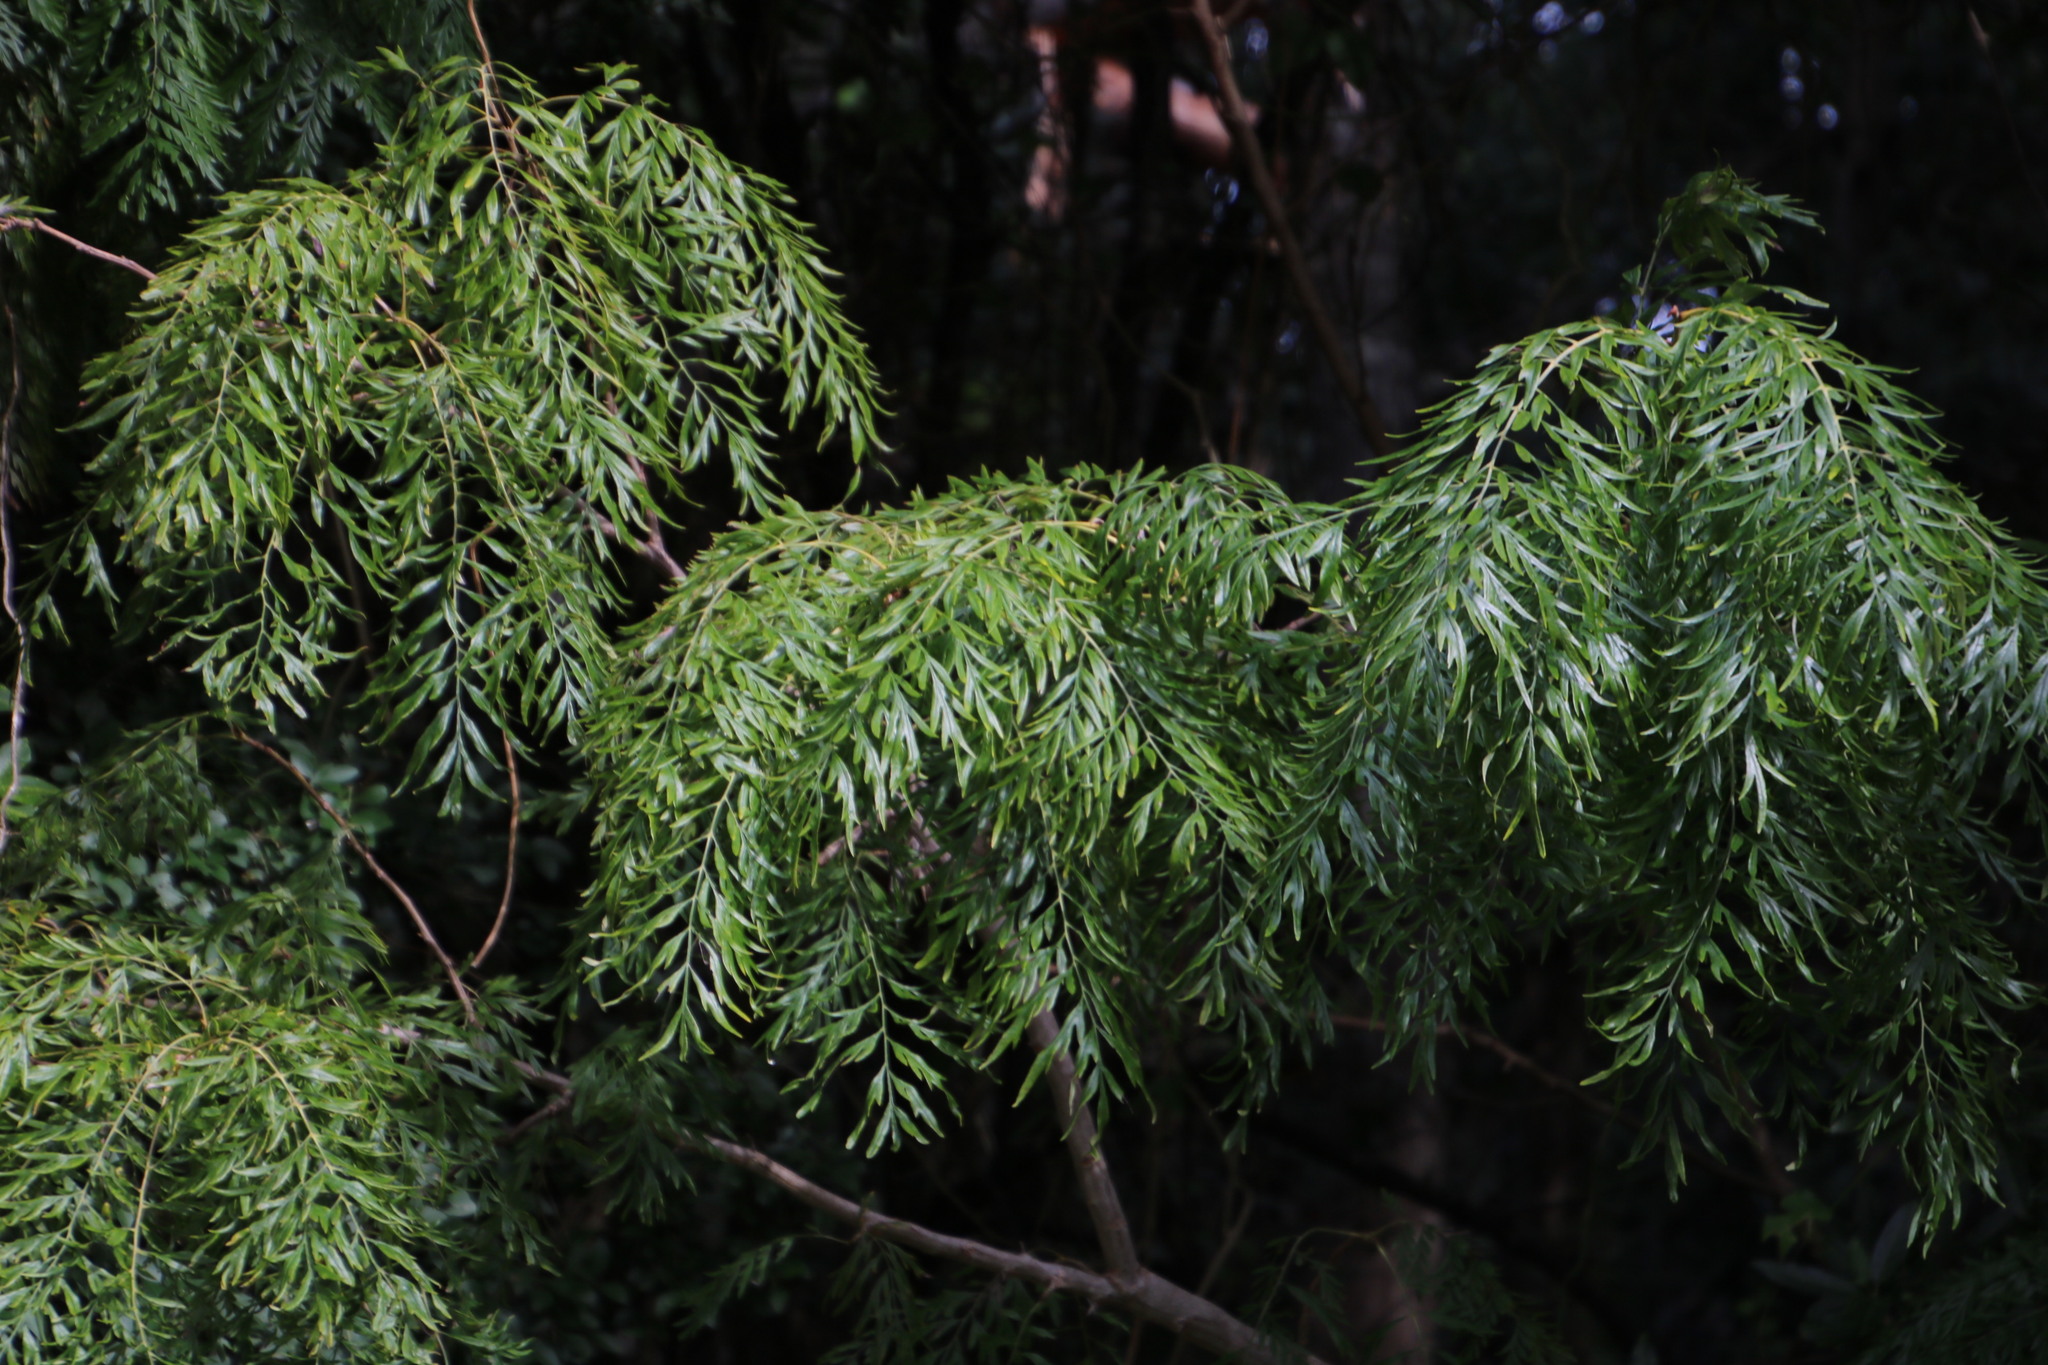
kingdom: Plantae
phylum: Tracheophyta
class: Magnoliopsida
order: Proteales
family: Proteaceae
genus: Grevillea
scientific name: Grevillea robusta
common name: Silkoak
